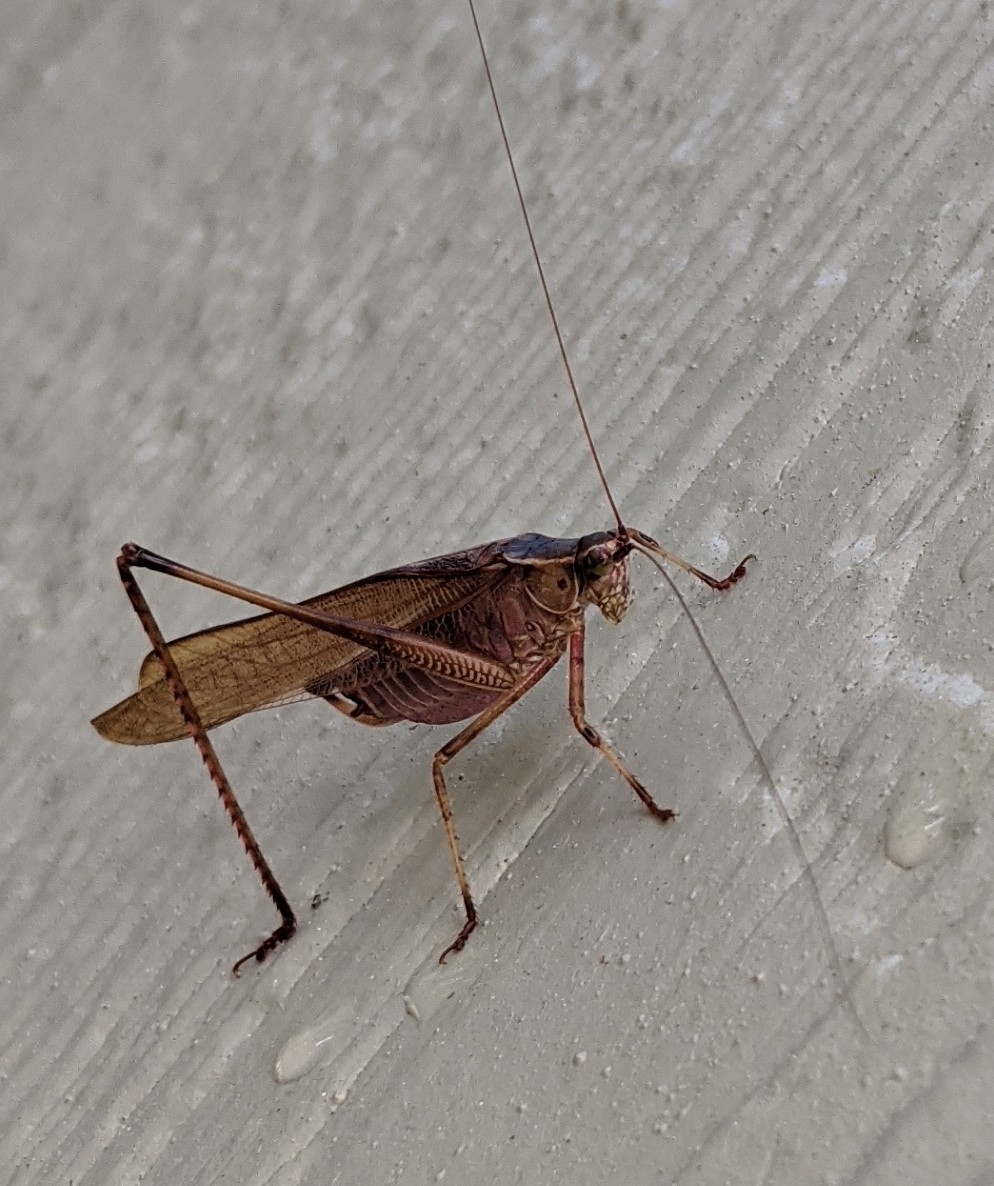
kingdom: Animalia
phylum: Arthropoda
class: Insecta
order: Orthoptera
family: Tettigoniidae
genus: Scudderia
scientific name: Scudderia furcata
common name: Fork-tailed bush katydid
